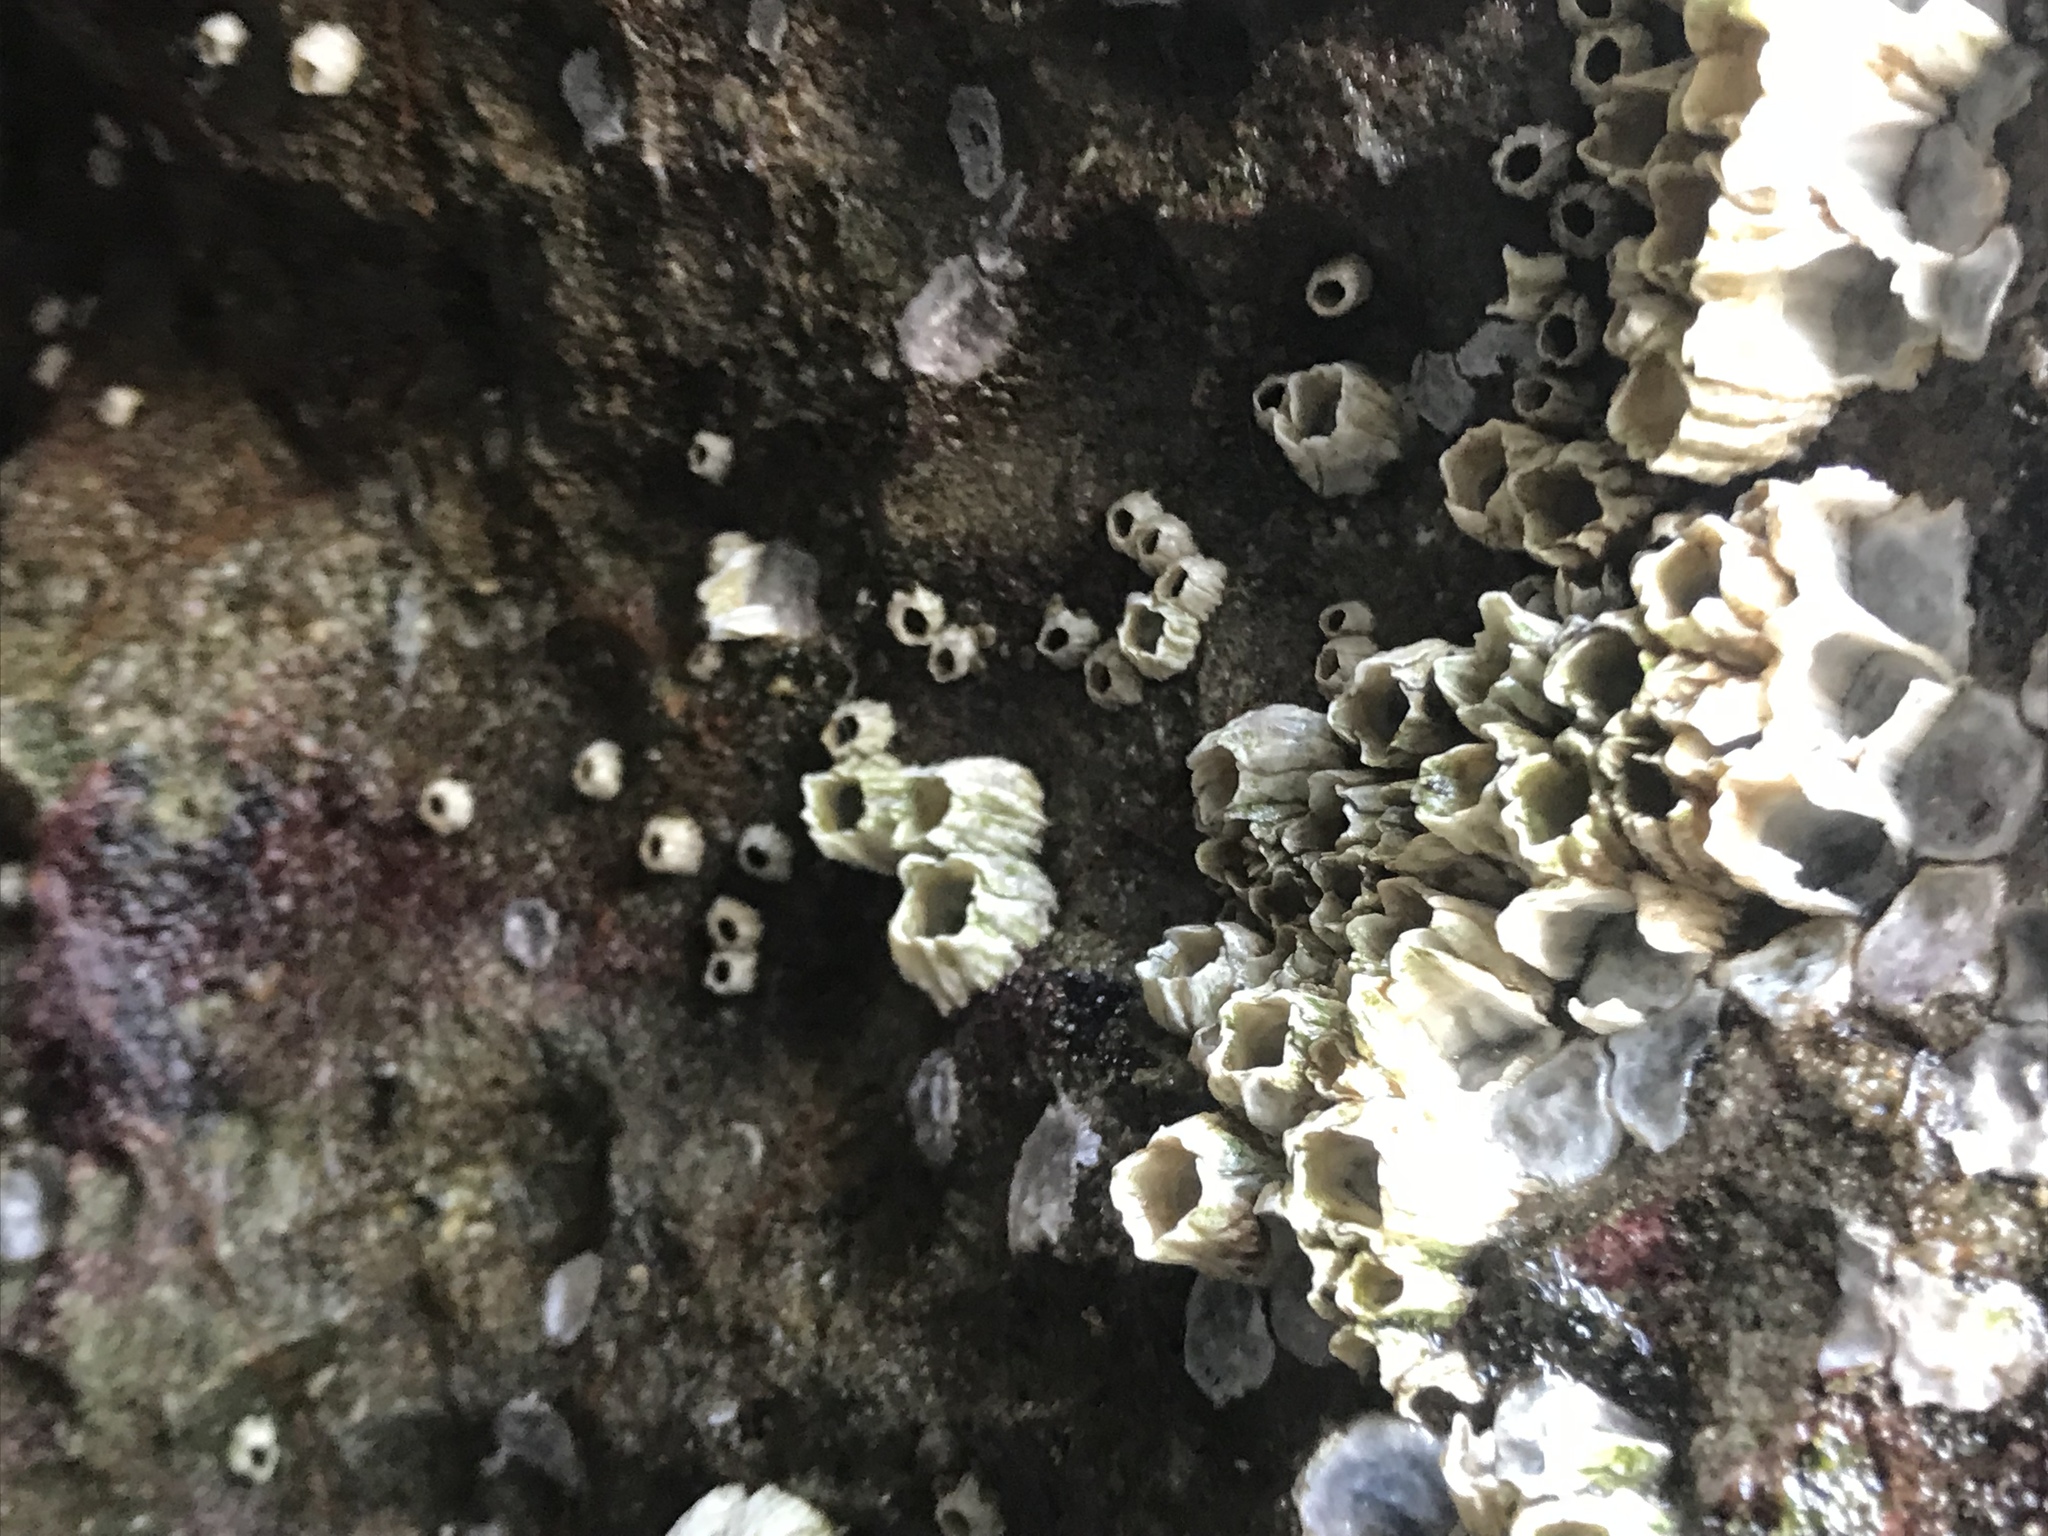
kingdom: Animalia
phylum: Arthropoda
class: Maxillopoda
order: Sessilia
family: Balanidae
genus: Balanus
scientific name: Balanus glandula
